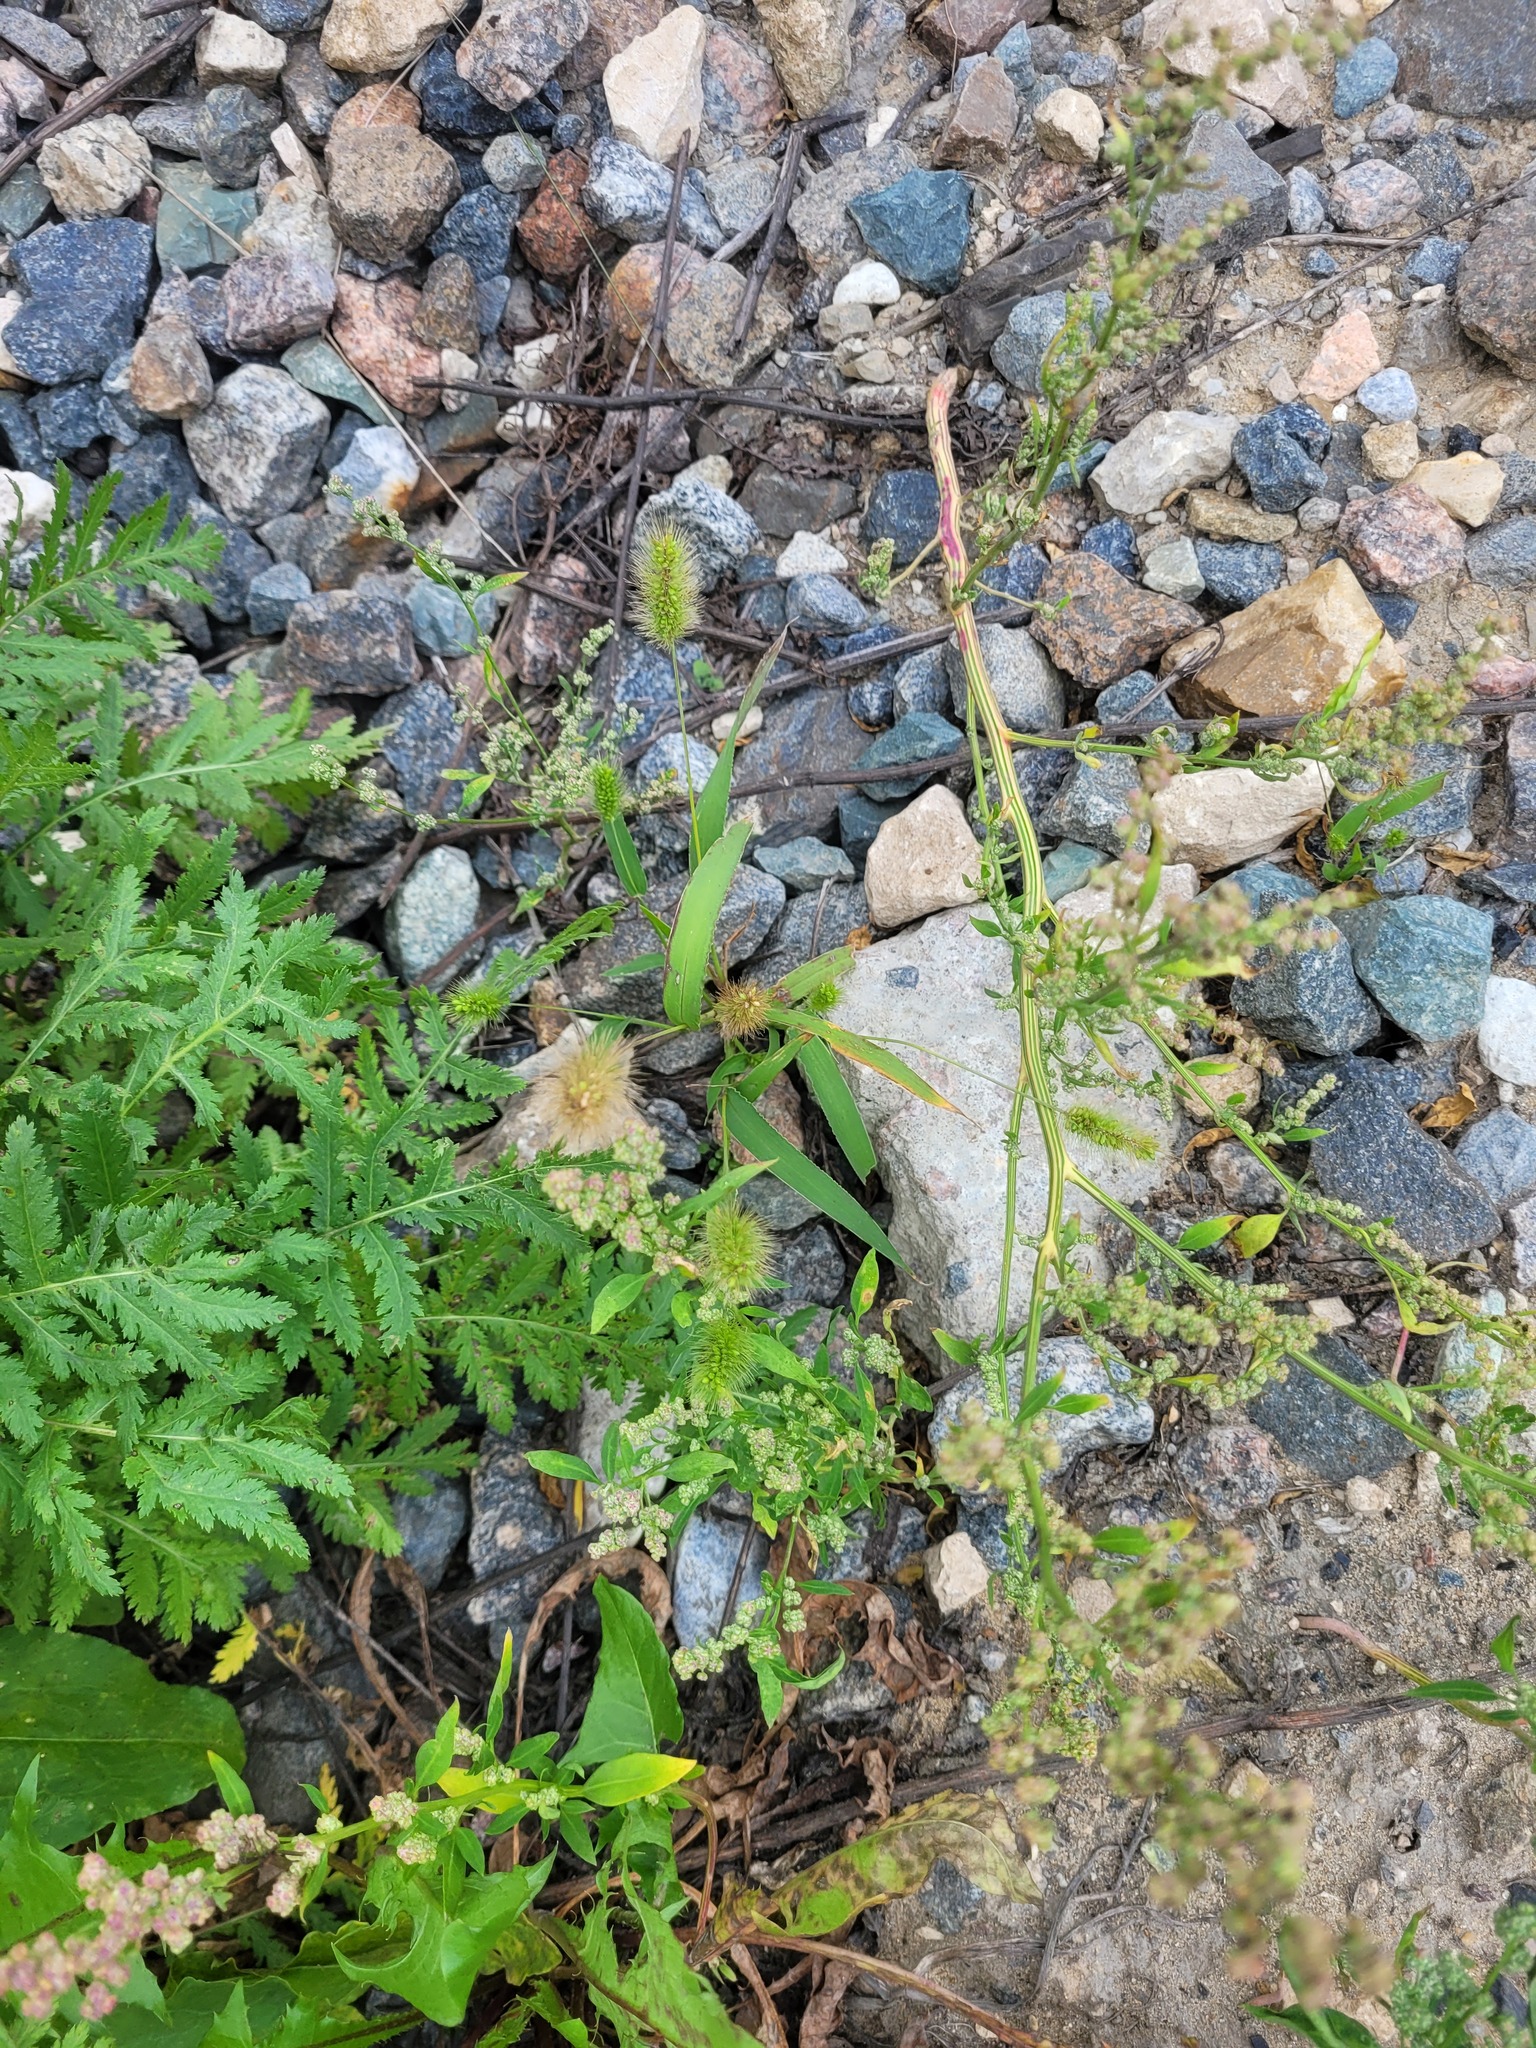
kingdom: Plantae
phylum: Tracheophyta
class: Liliopsida
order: Poales
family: Poaceae
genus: Setaria
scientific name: Setaria viridis
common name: Green bristlegrass
